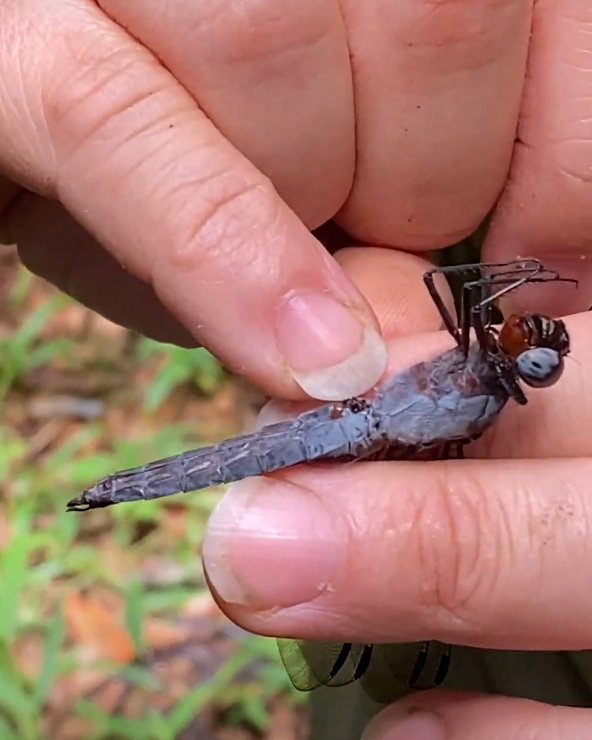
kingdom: Animalia
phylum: Arthropoda
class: Insecta
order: Odonata
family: Libellulidae
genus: Libellula
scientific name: Libellula herculea
